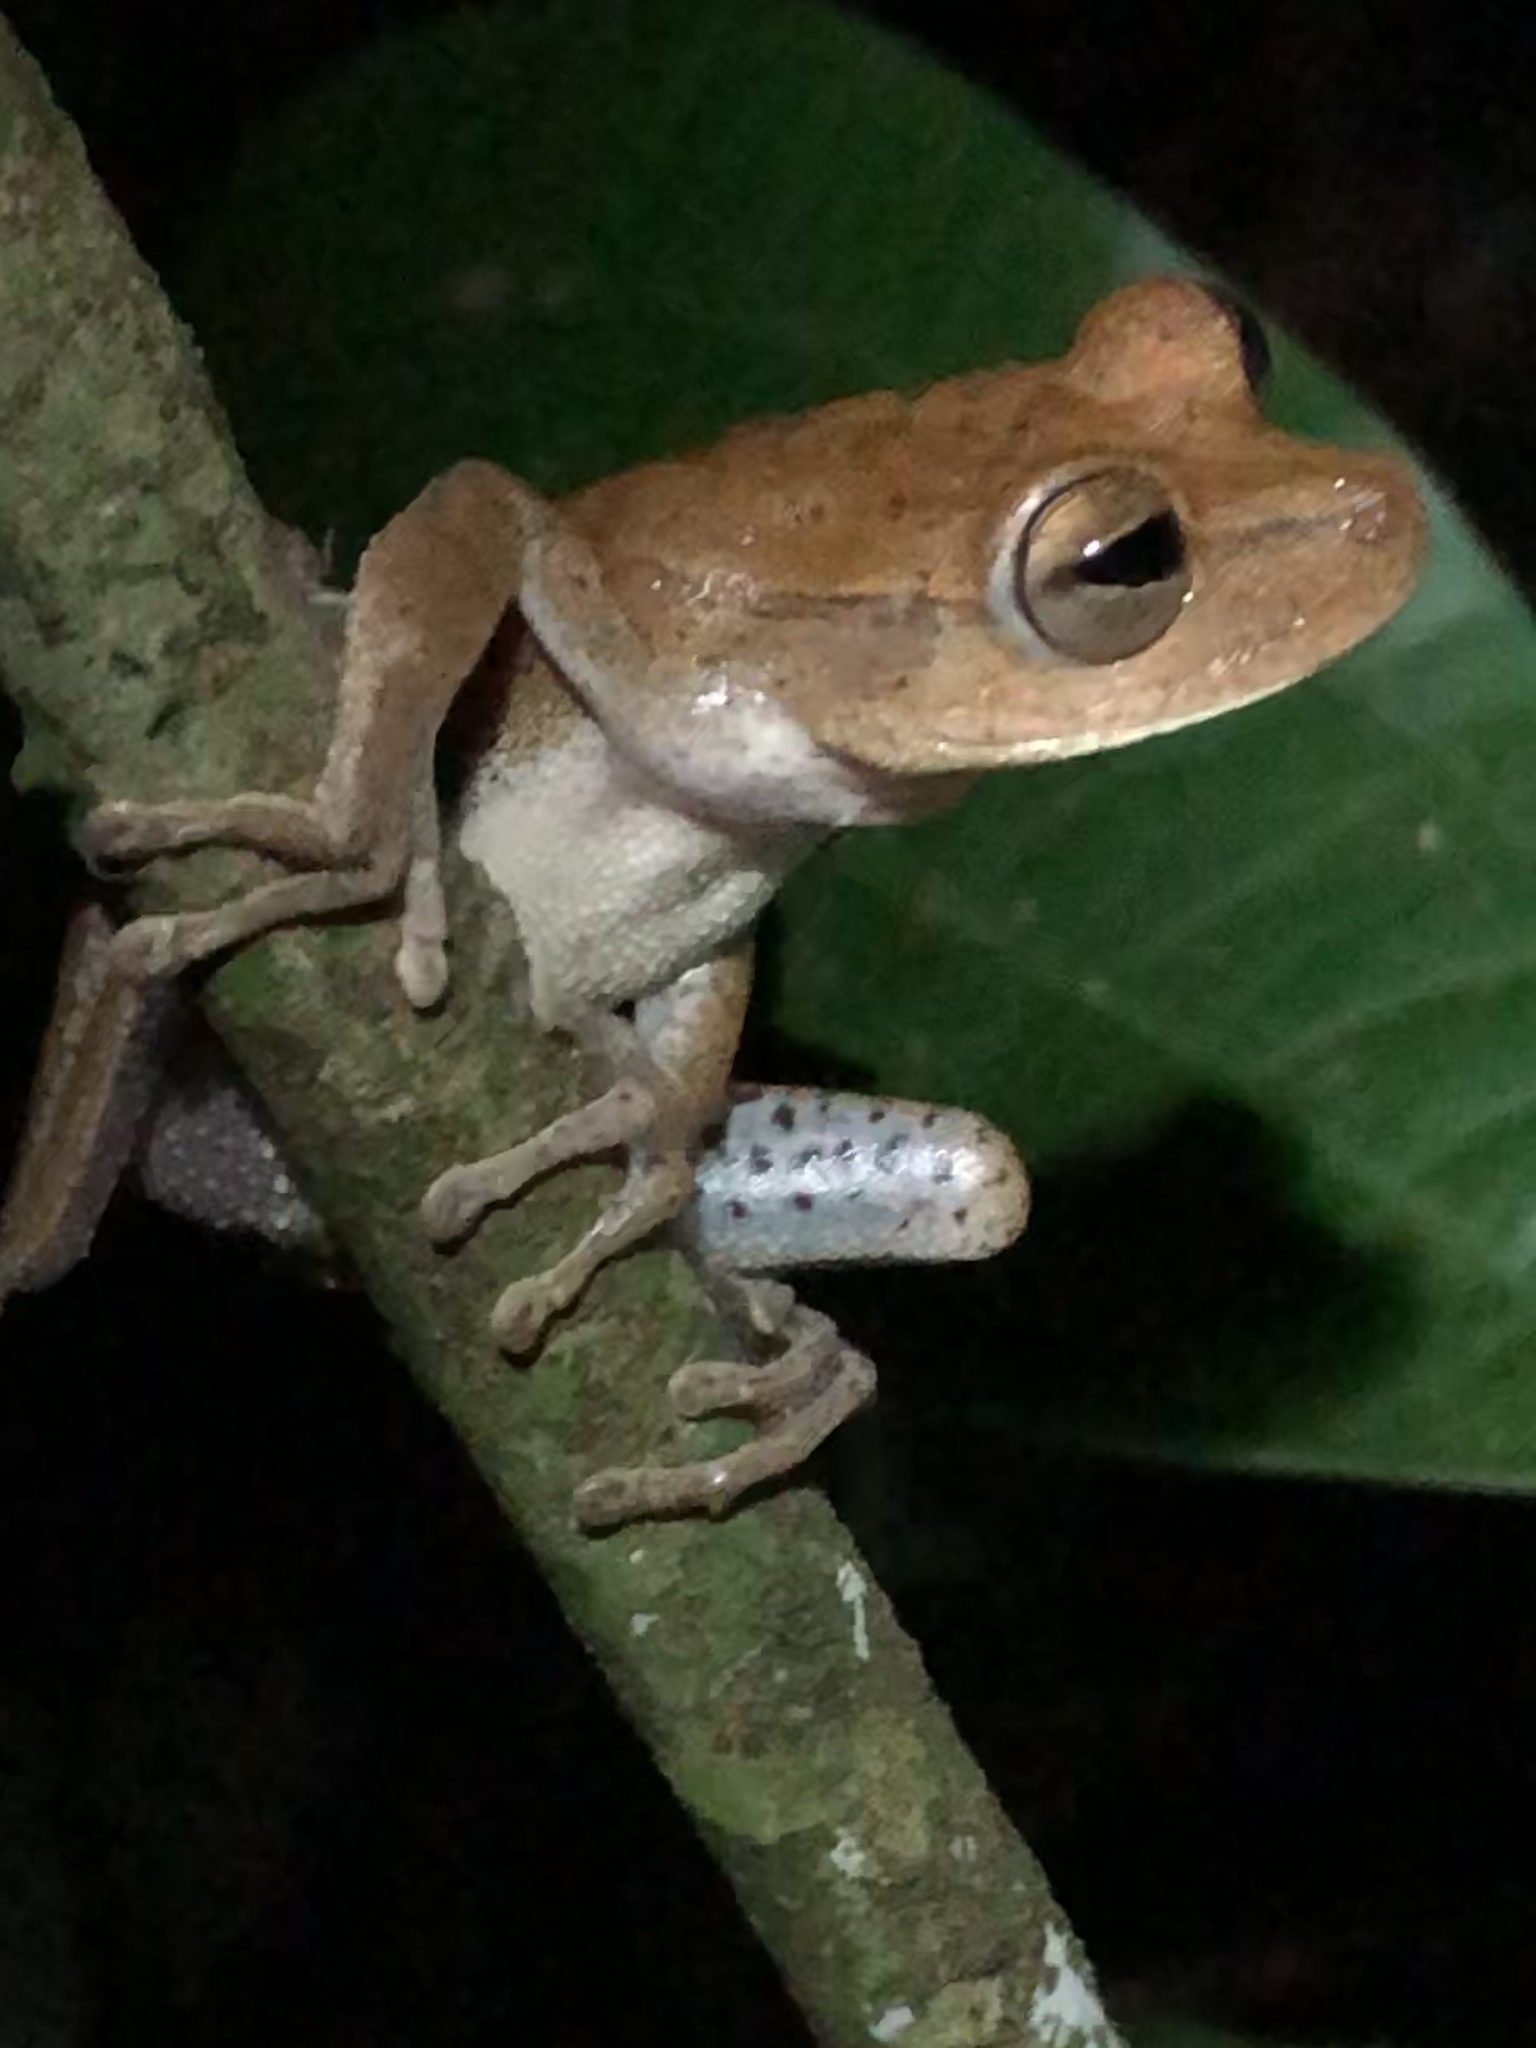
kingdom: Animalia
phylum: Chordata
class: Amphibia
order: Anura
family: Hylidae
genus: Boana
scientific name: Boana maculateralis
